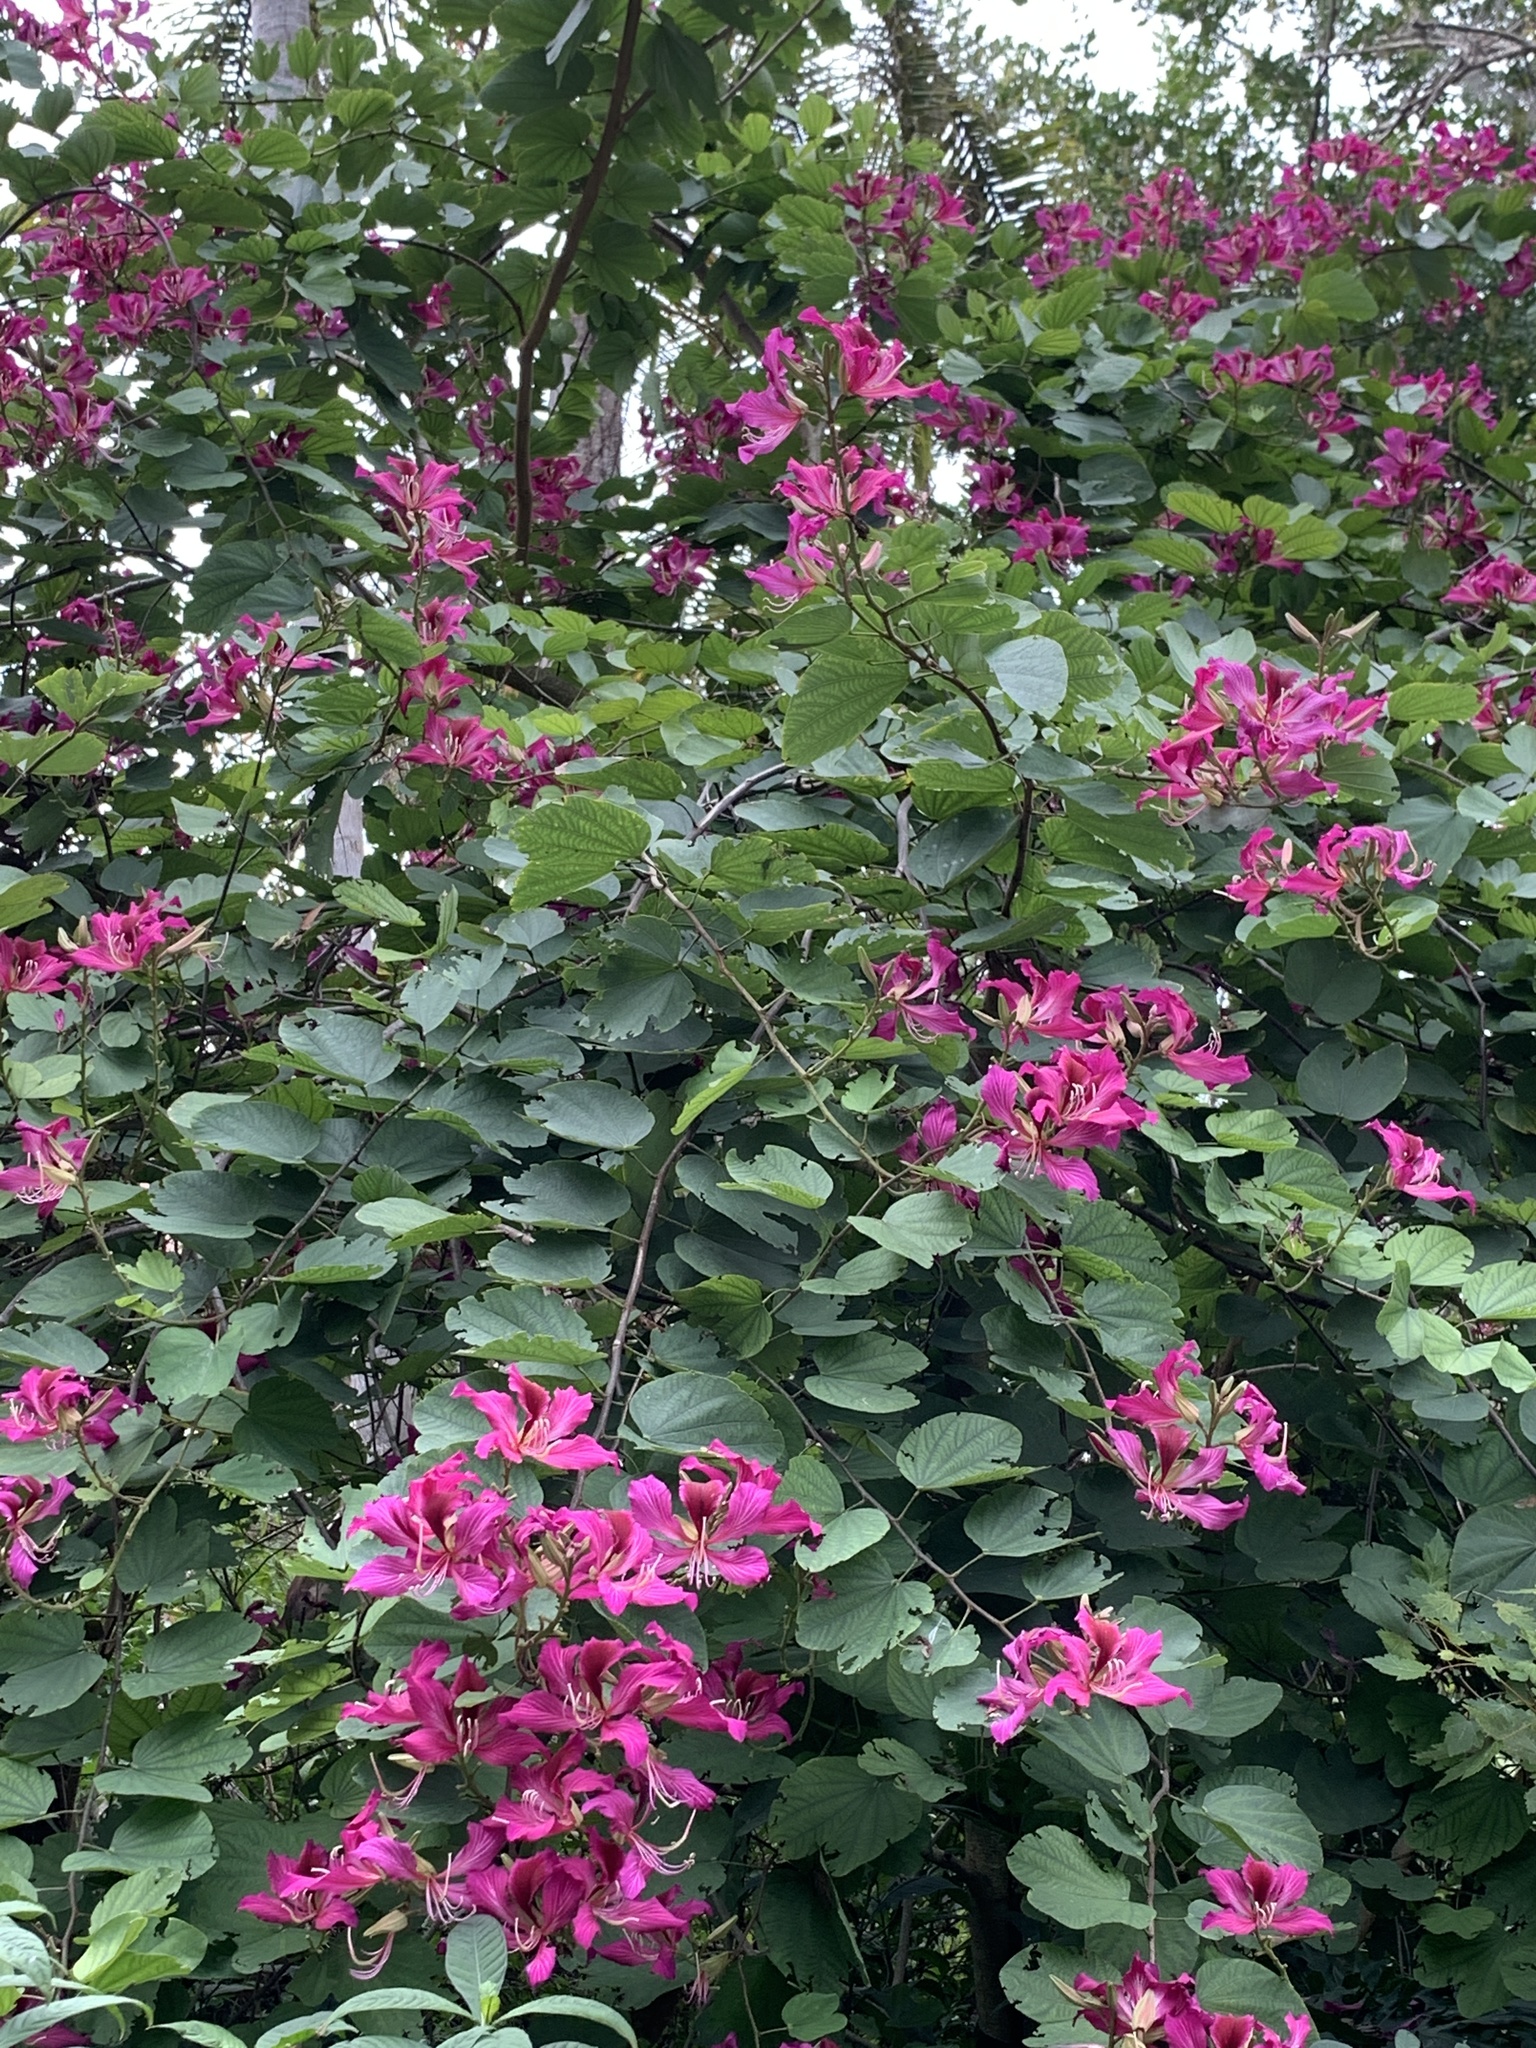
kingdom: Plantae
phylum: Tracheophyta
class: Magnoliopsida
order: Fabales
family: Fabaceae
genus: Bauhinia
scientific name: Bauhinia blakeana
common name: Bauhinia
